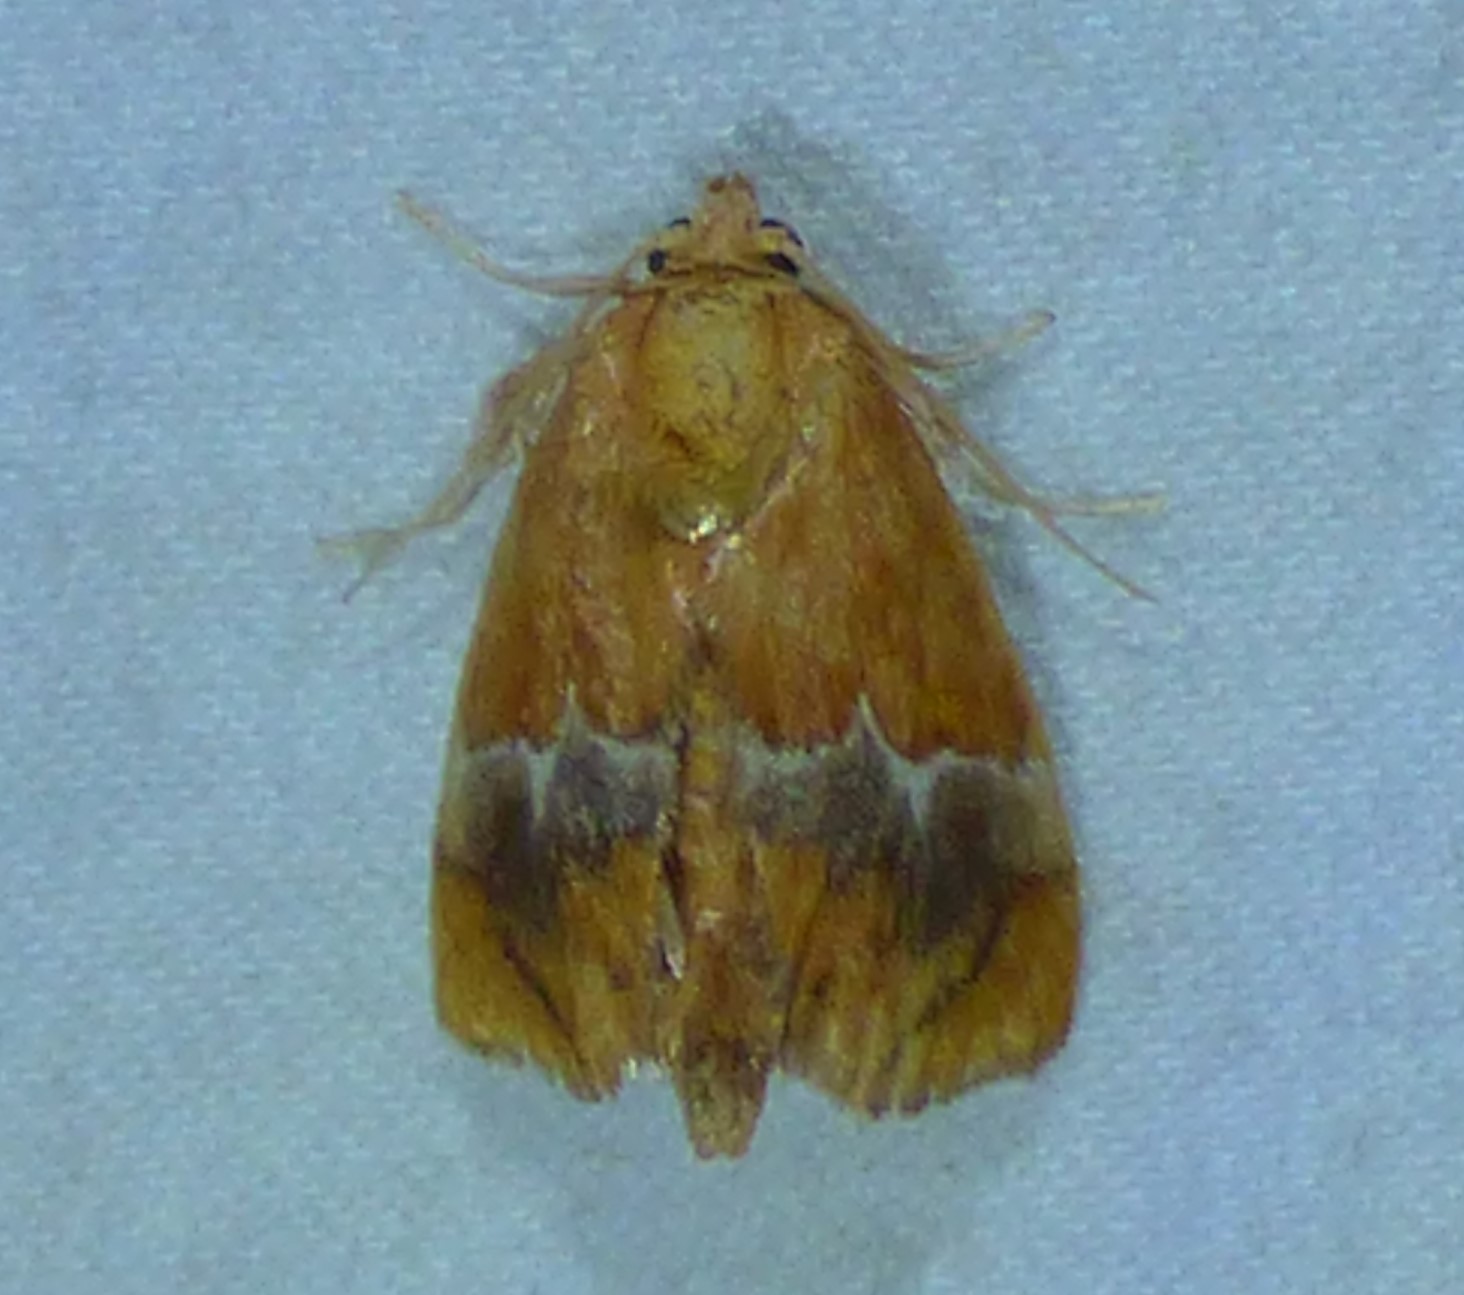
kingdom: Animalia
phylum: Arthropoda
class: Insecta
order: Lepidoptera
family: Limacodidae
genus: Lithacodes
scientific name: Lithacodes fasciola
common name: Yellow-shouldered slug moth
